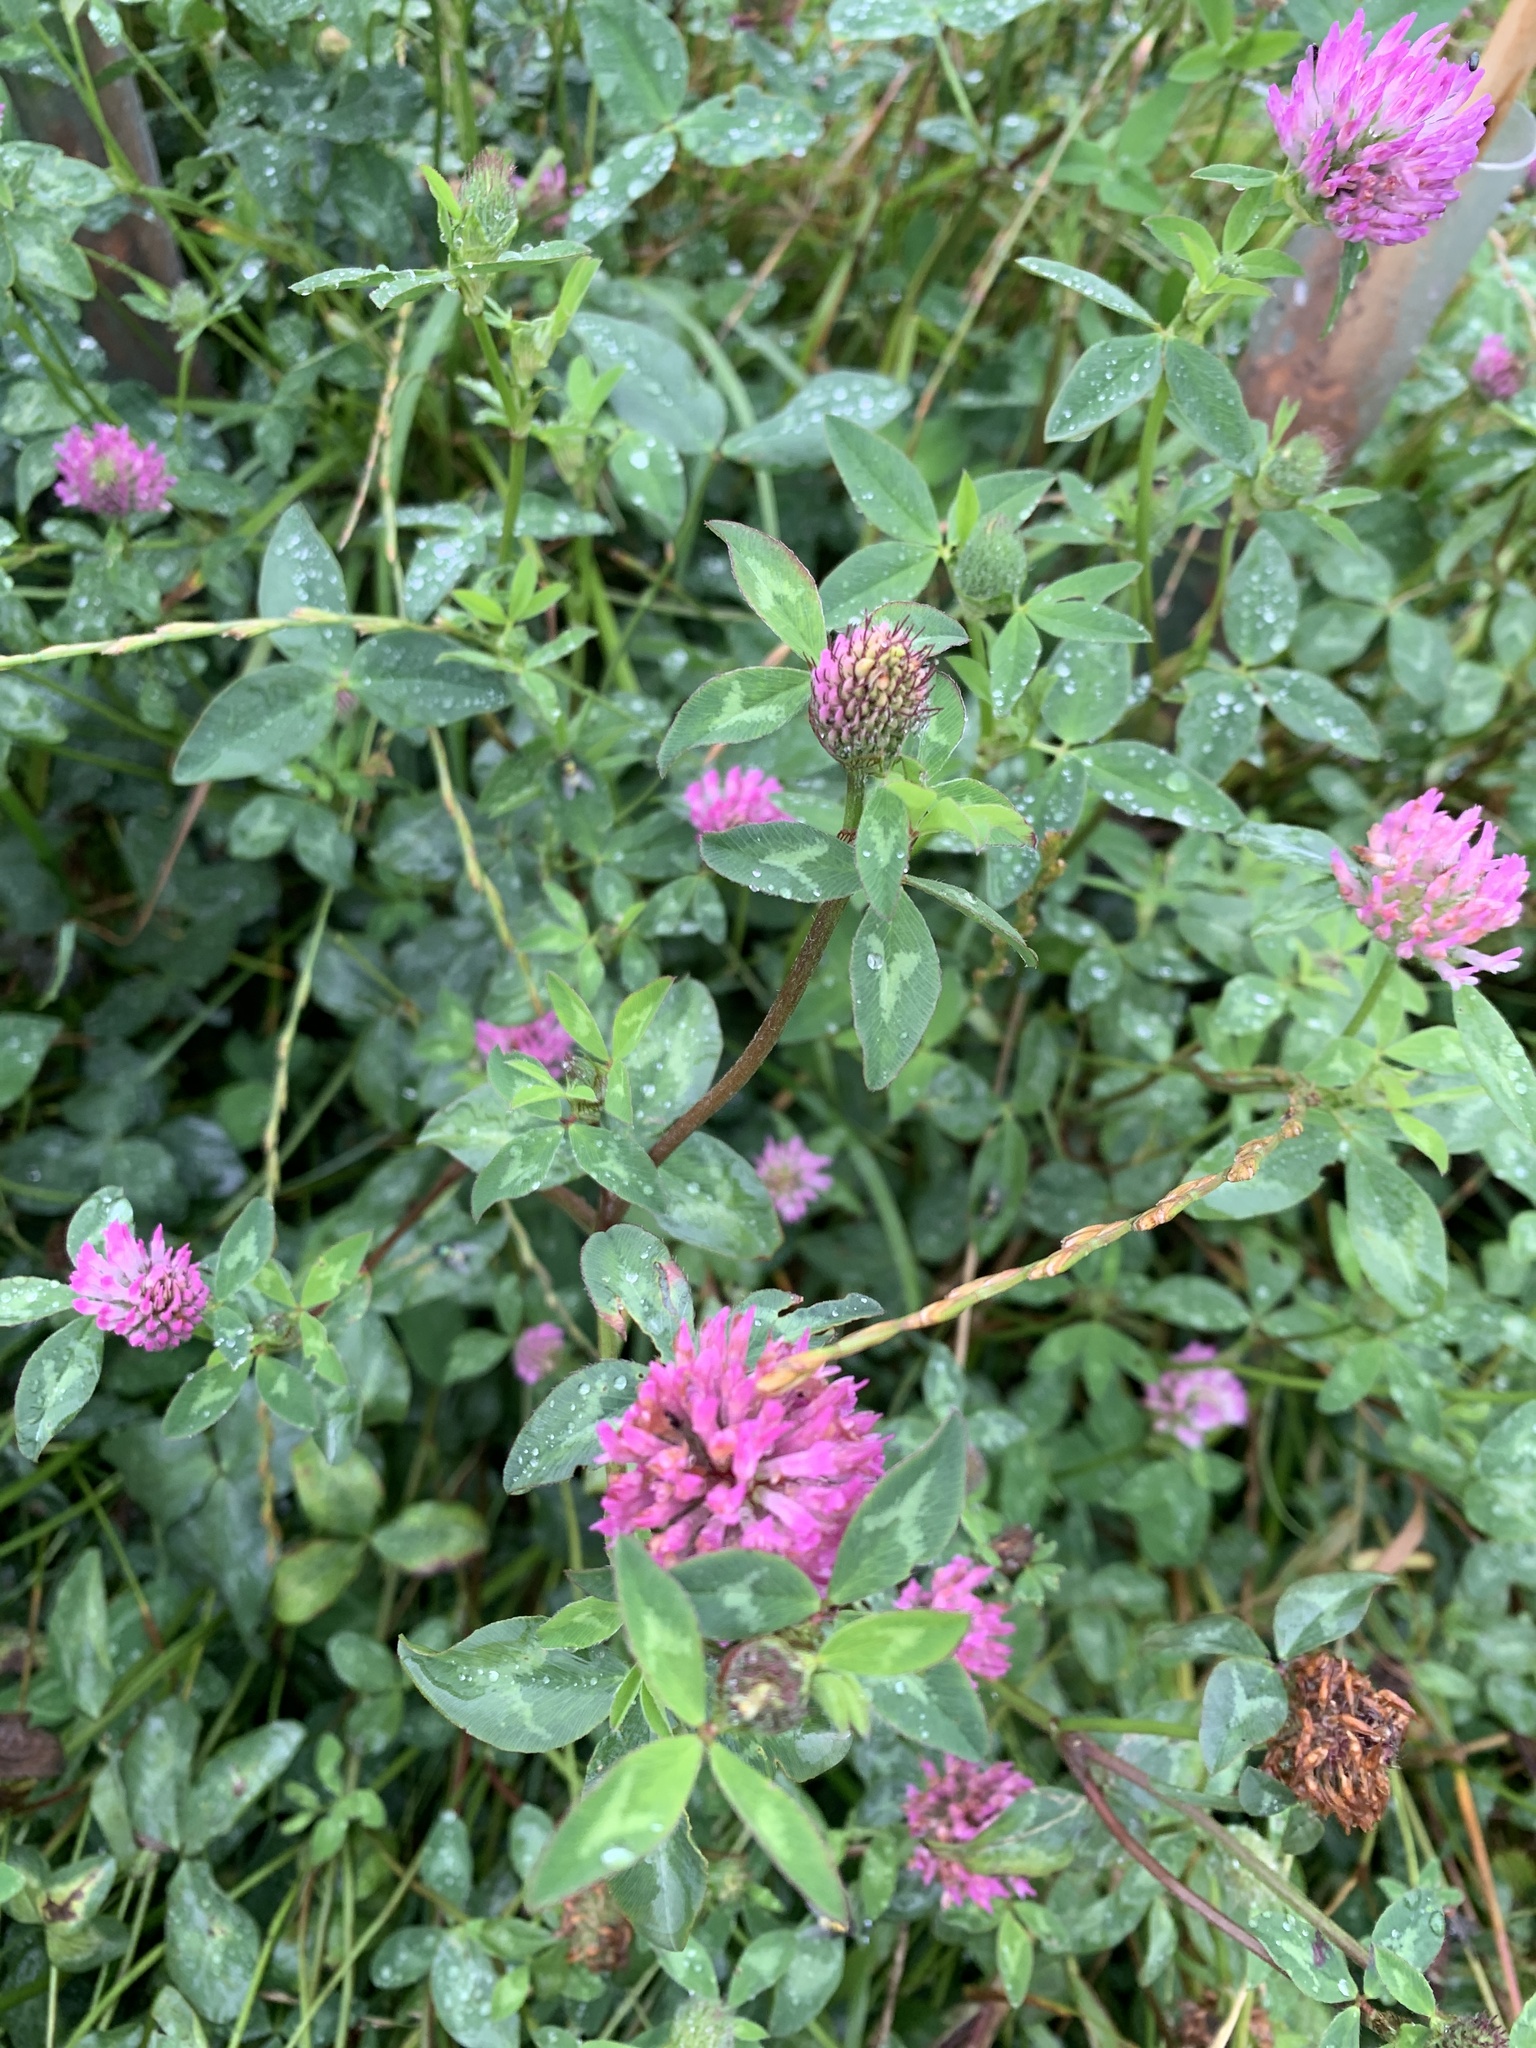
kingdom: Plantae
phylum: Tracheophyta
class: Magnoliopsida
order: Fabales
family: Fabaceae
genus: Trifolium
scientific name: Trifolium pratense
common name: Red clover
